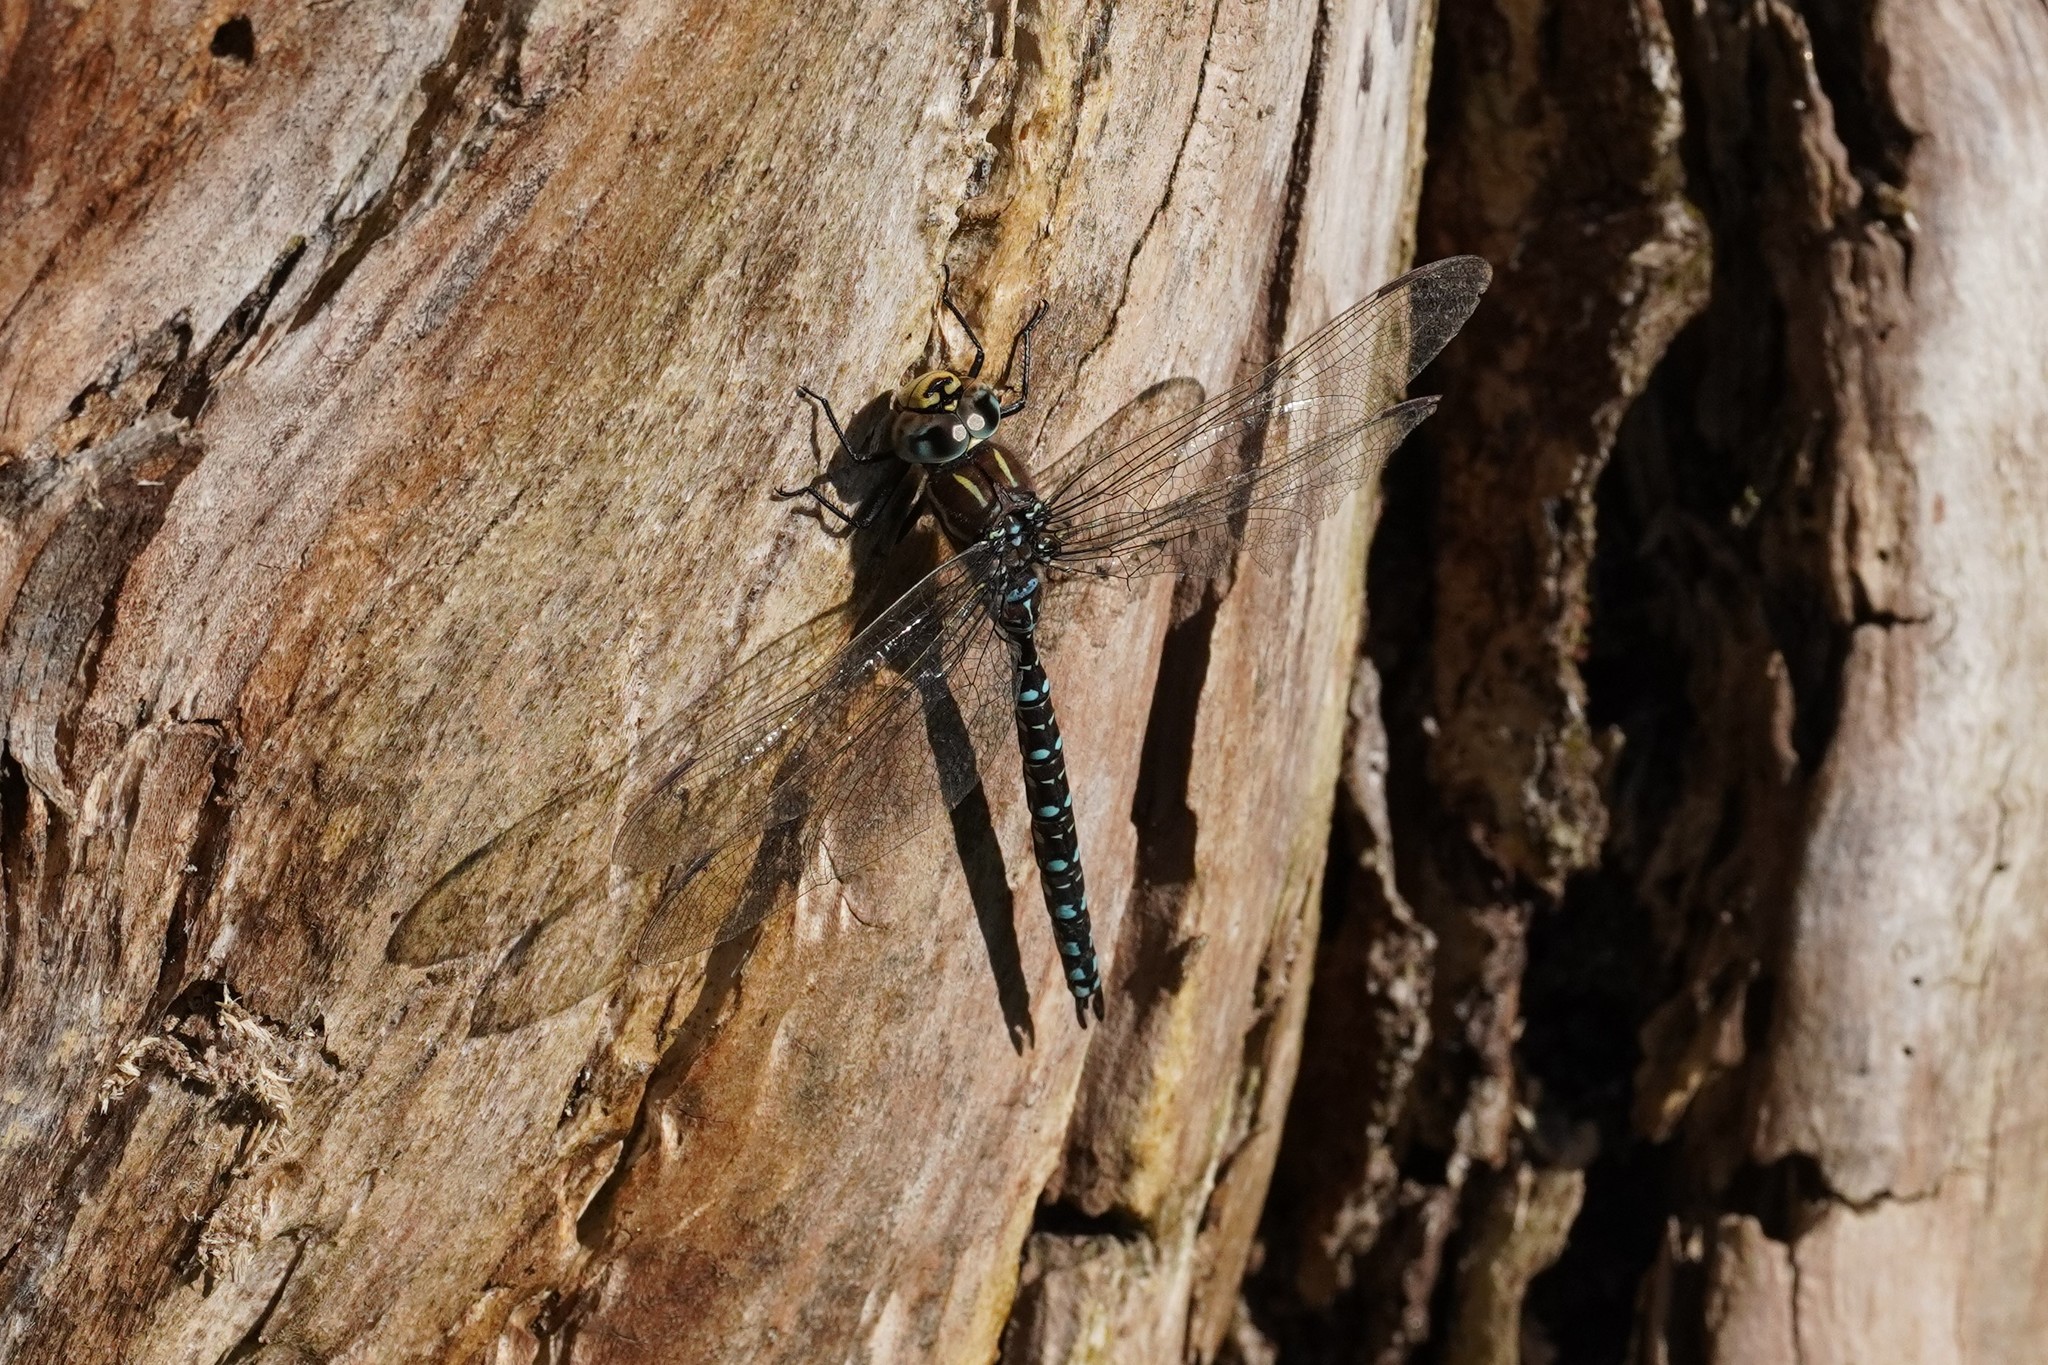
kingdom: Animalia
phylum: Arthropoda
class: Insecta
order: Odonata
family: Aeshnidae
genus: Aeshna
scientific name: Aeshna juncea
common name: Moorland hawker
